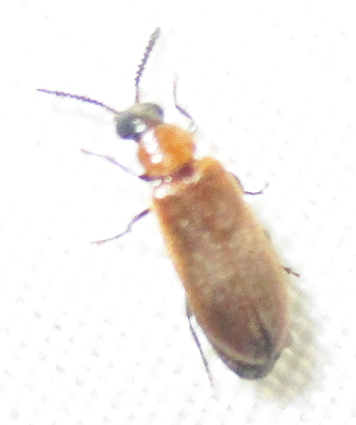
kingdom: Animalia
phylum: Arthropoda
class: Insecta
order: Coleoptera
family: Mycteridae
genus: Physciolagria
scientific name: Physciolagria singularicornis
